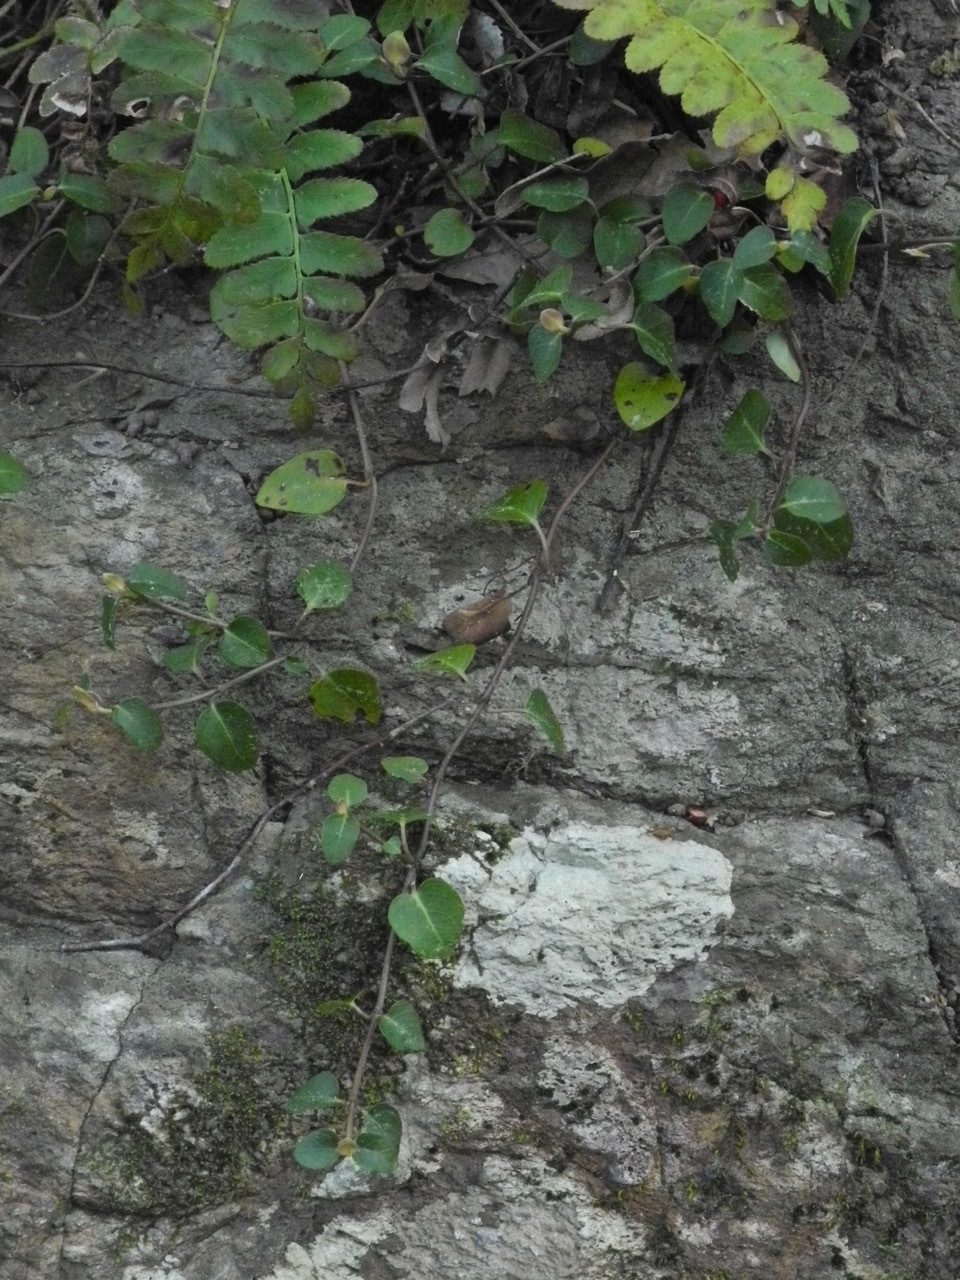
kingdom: Plantae
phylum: Tracheophyta
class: Magnoliopsida
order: Gentianales
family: Rubiaceae
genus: Mitchella
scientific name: Mitchella repens
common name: Partridge-berry
